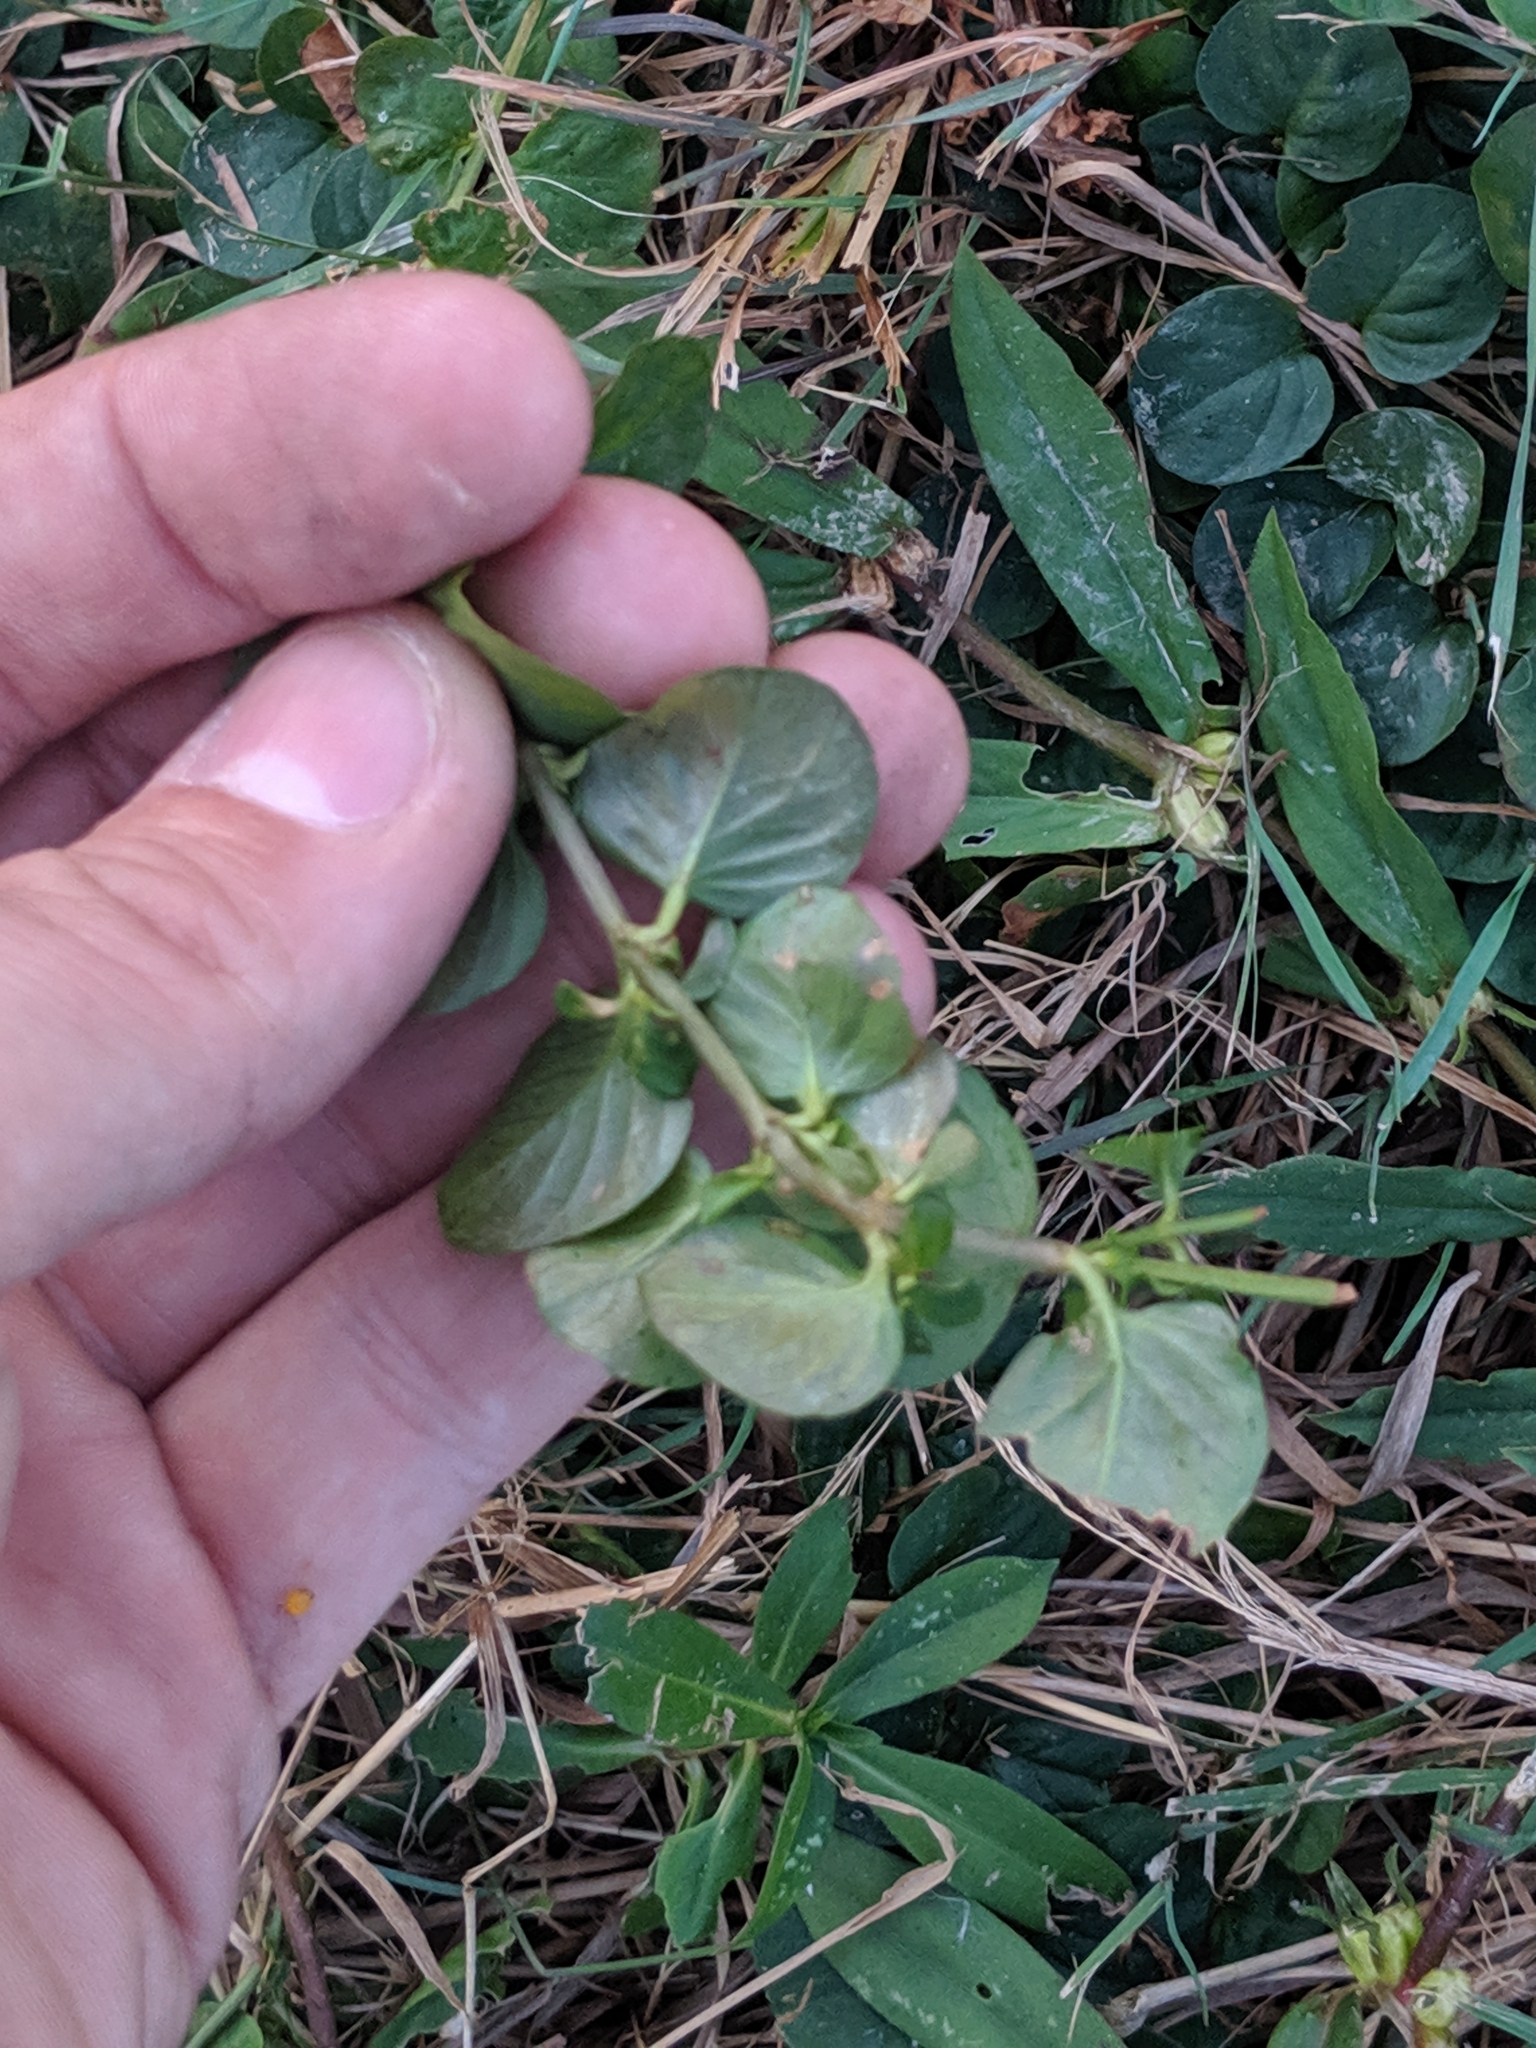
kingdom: Plantae
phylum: Tracheophyta
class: Magnoliopsida
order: Ericales
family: Primulaceae
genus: Lysimachia
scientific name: Lysimachia nummularia
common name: Moneywort
